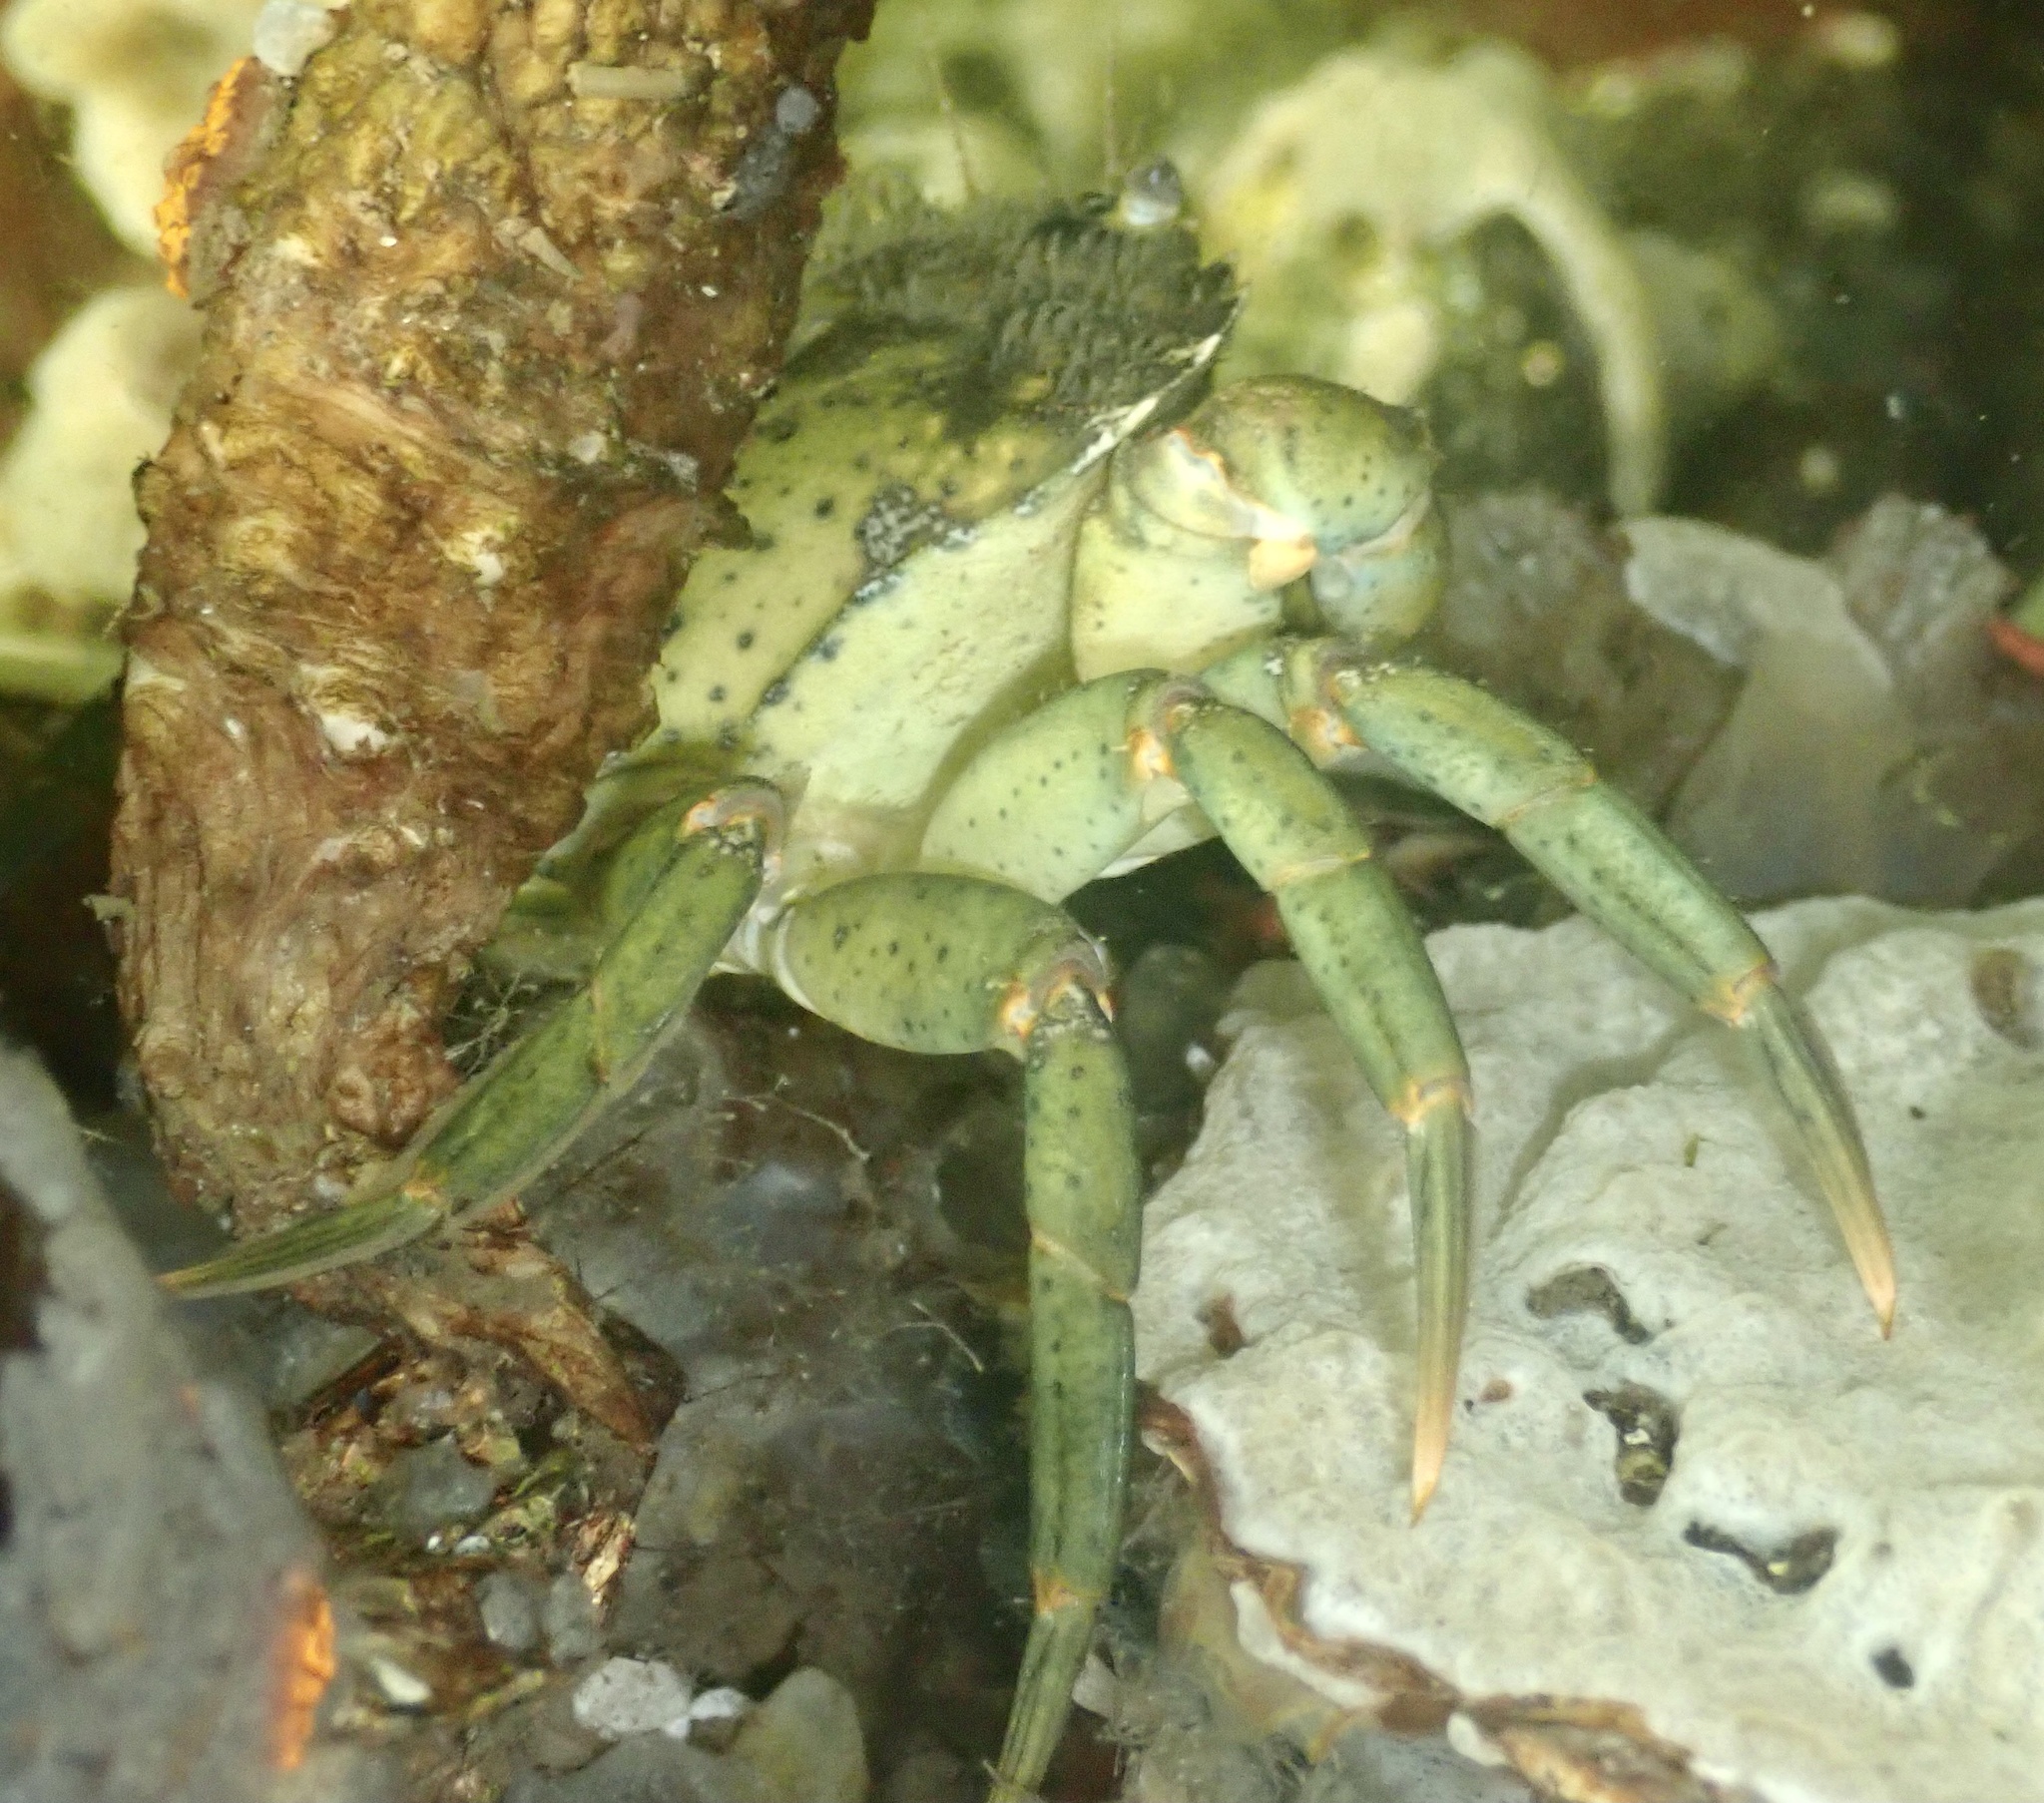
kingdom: Animalia
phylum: Arthropoda
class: Malacostraca
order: Decapoda
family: Carcinidae
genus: Carcinus
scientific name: Carcinus maenas
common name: European green crab
